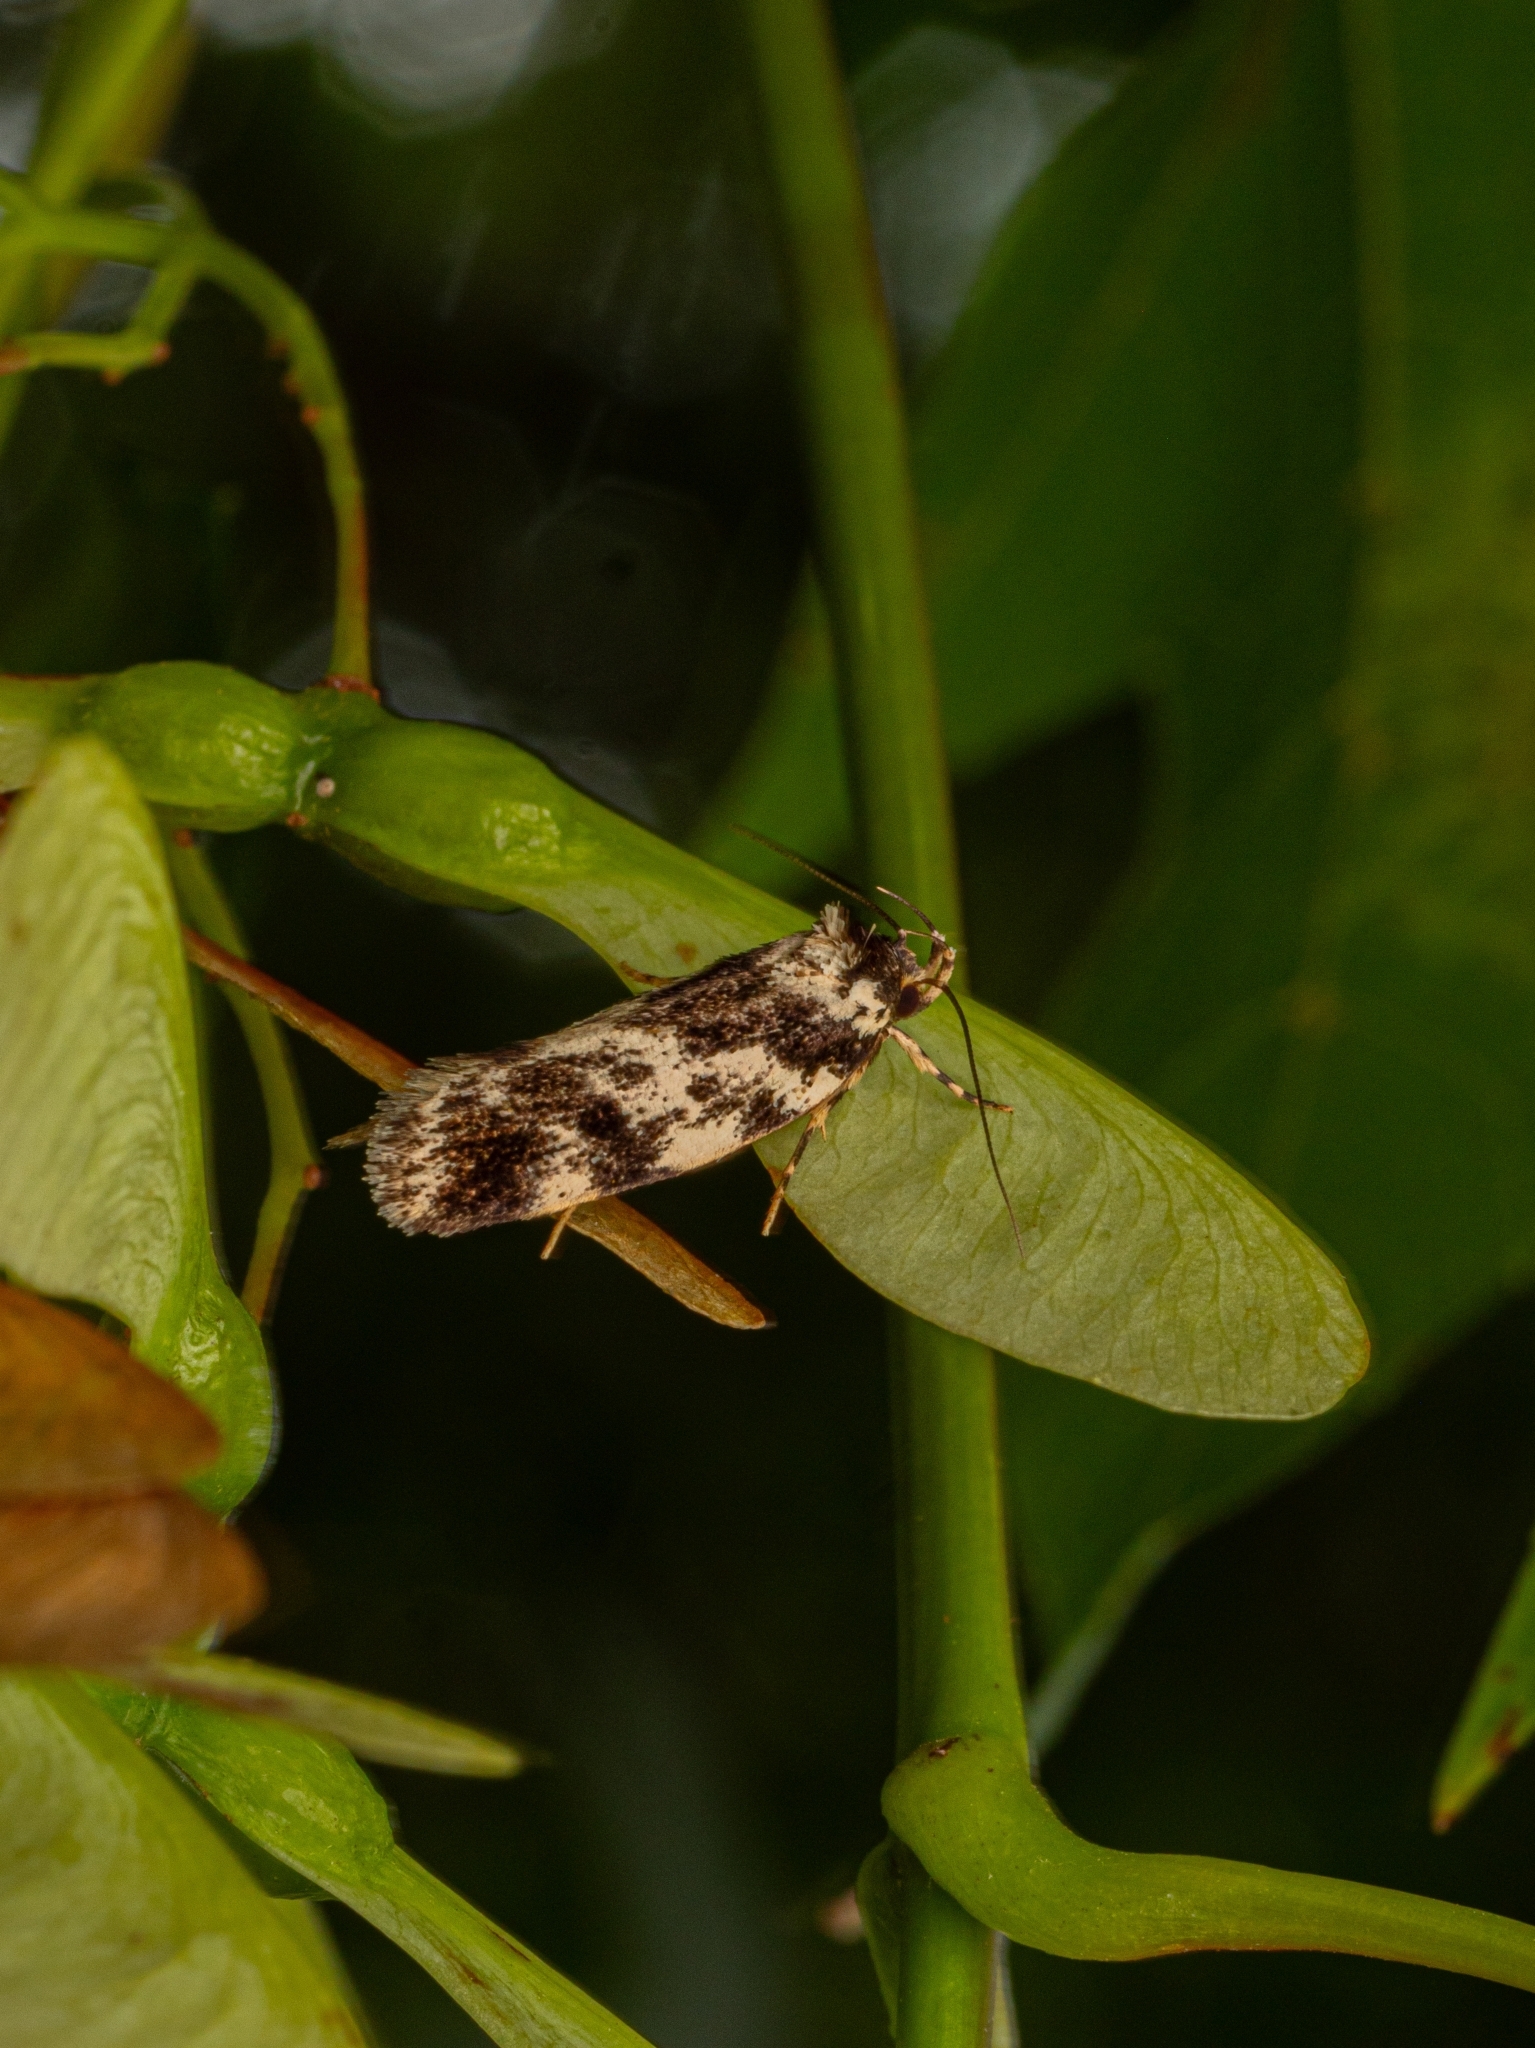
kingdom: Animalia
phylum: Arthropoda
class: Insecta
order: Lepidoptera
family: Oecophoridae
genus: Barea
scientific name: Barea confusella
